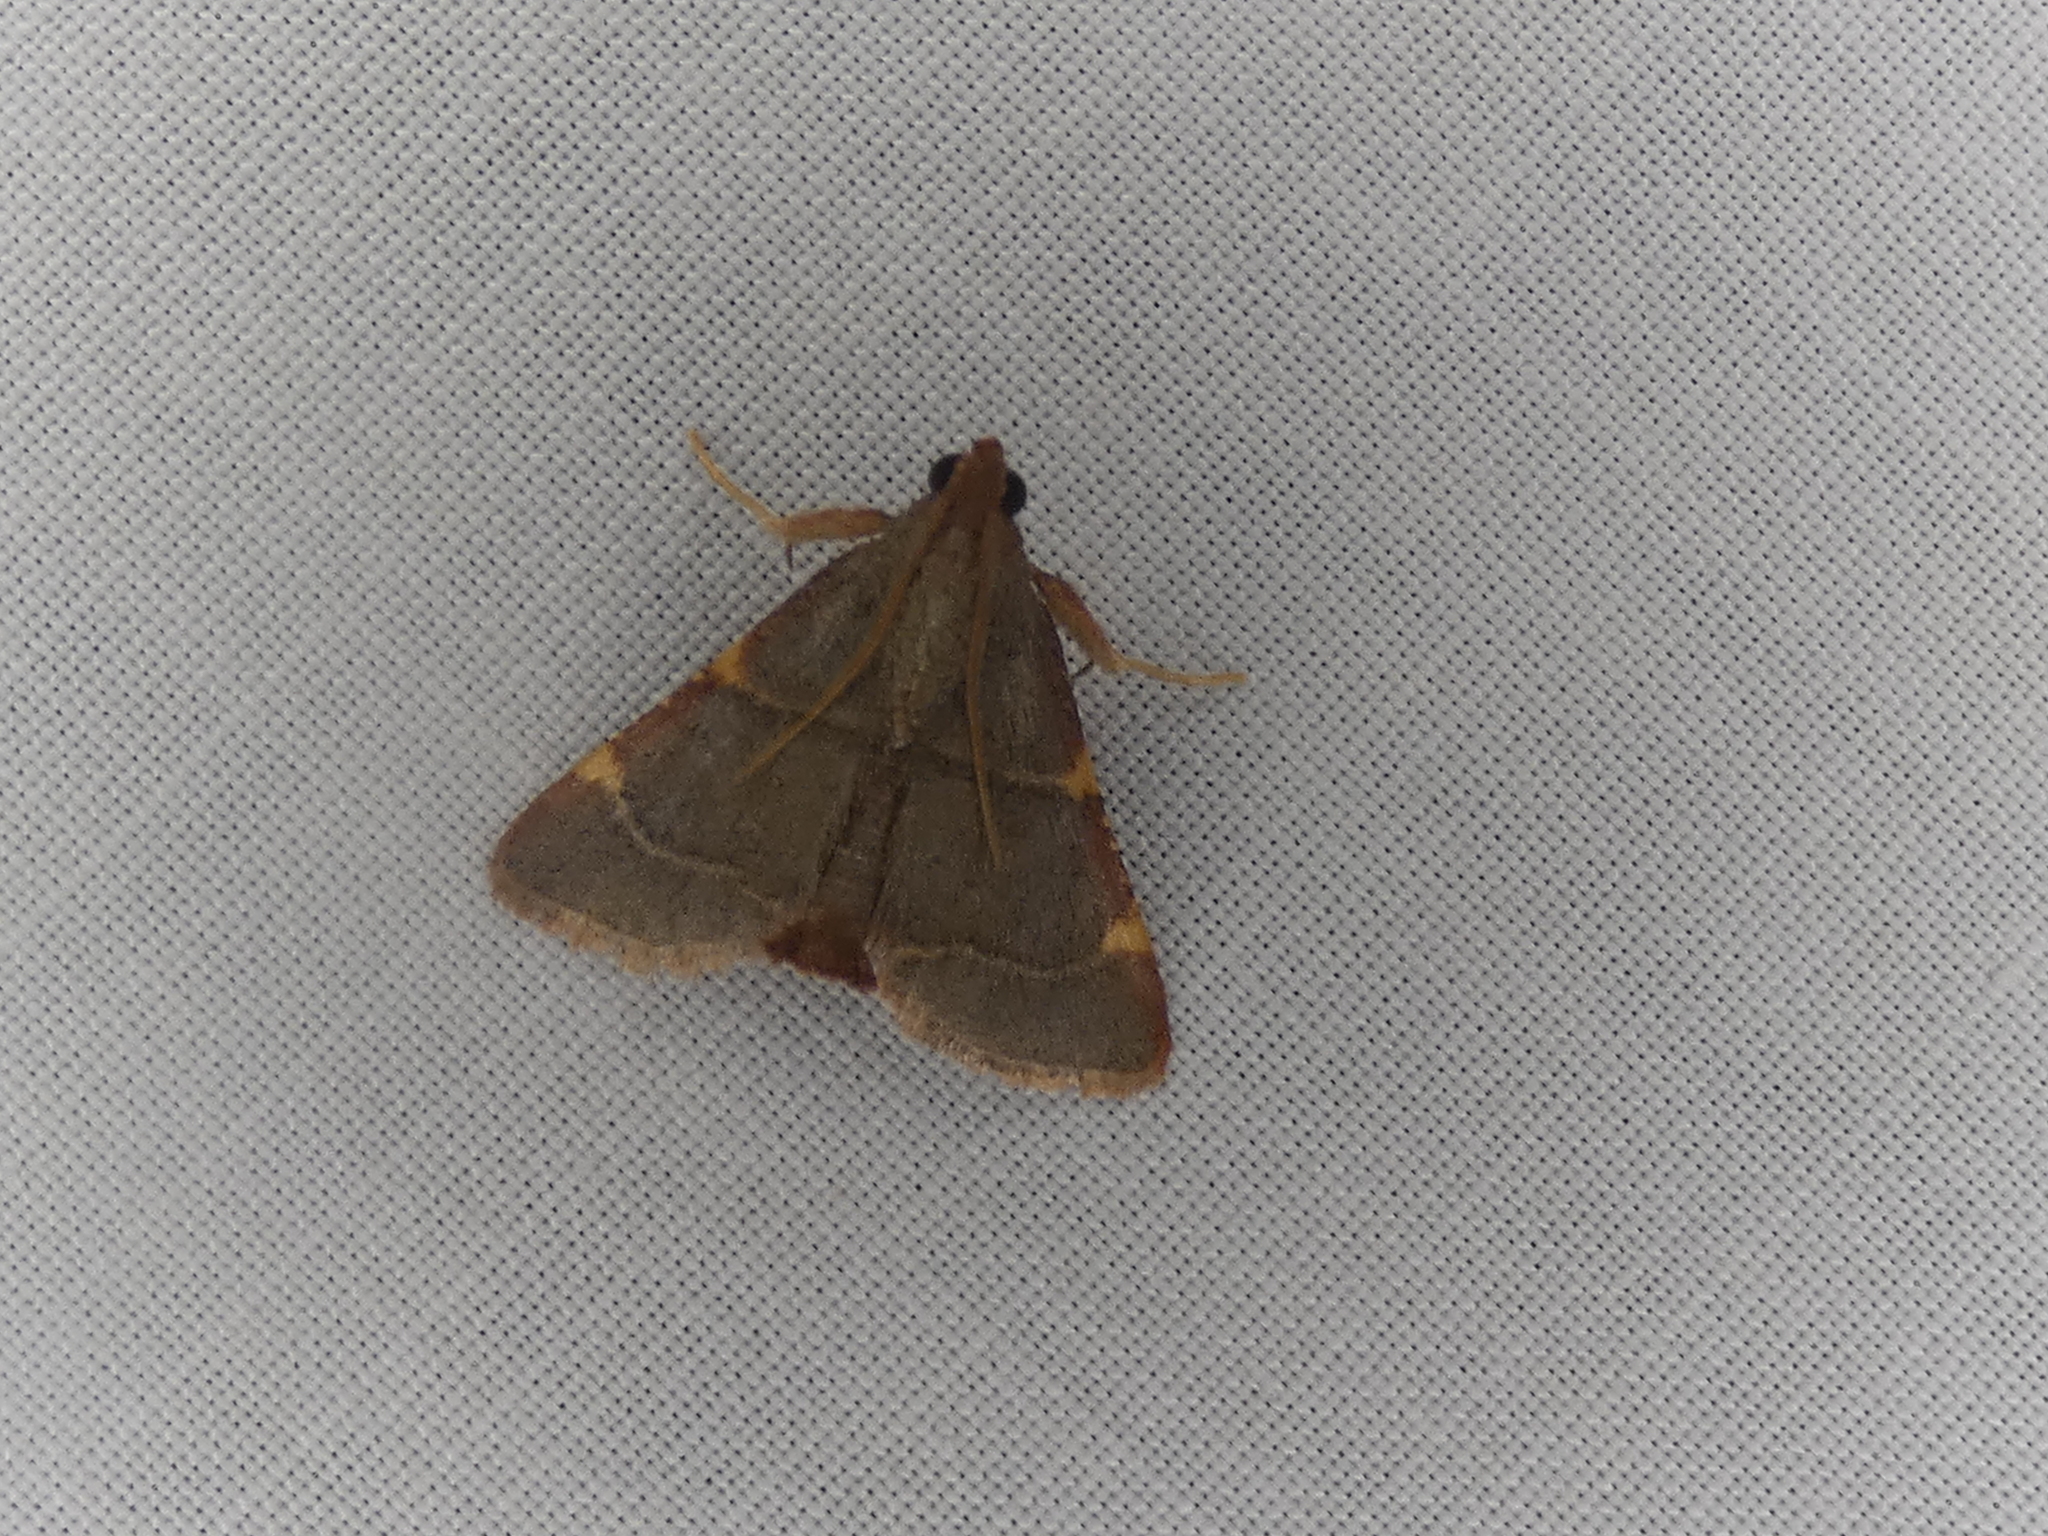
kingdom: Animalia
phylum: Arthropoda
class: Insecta
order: Lepidoptera
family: Pyralidae
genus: Hypsopygia
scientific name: Hypsopygia binodulalis
